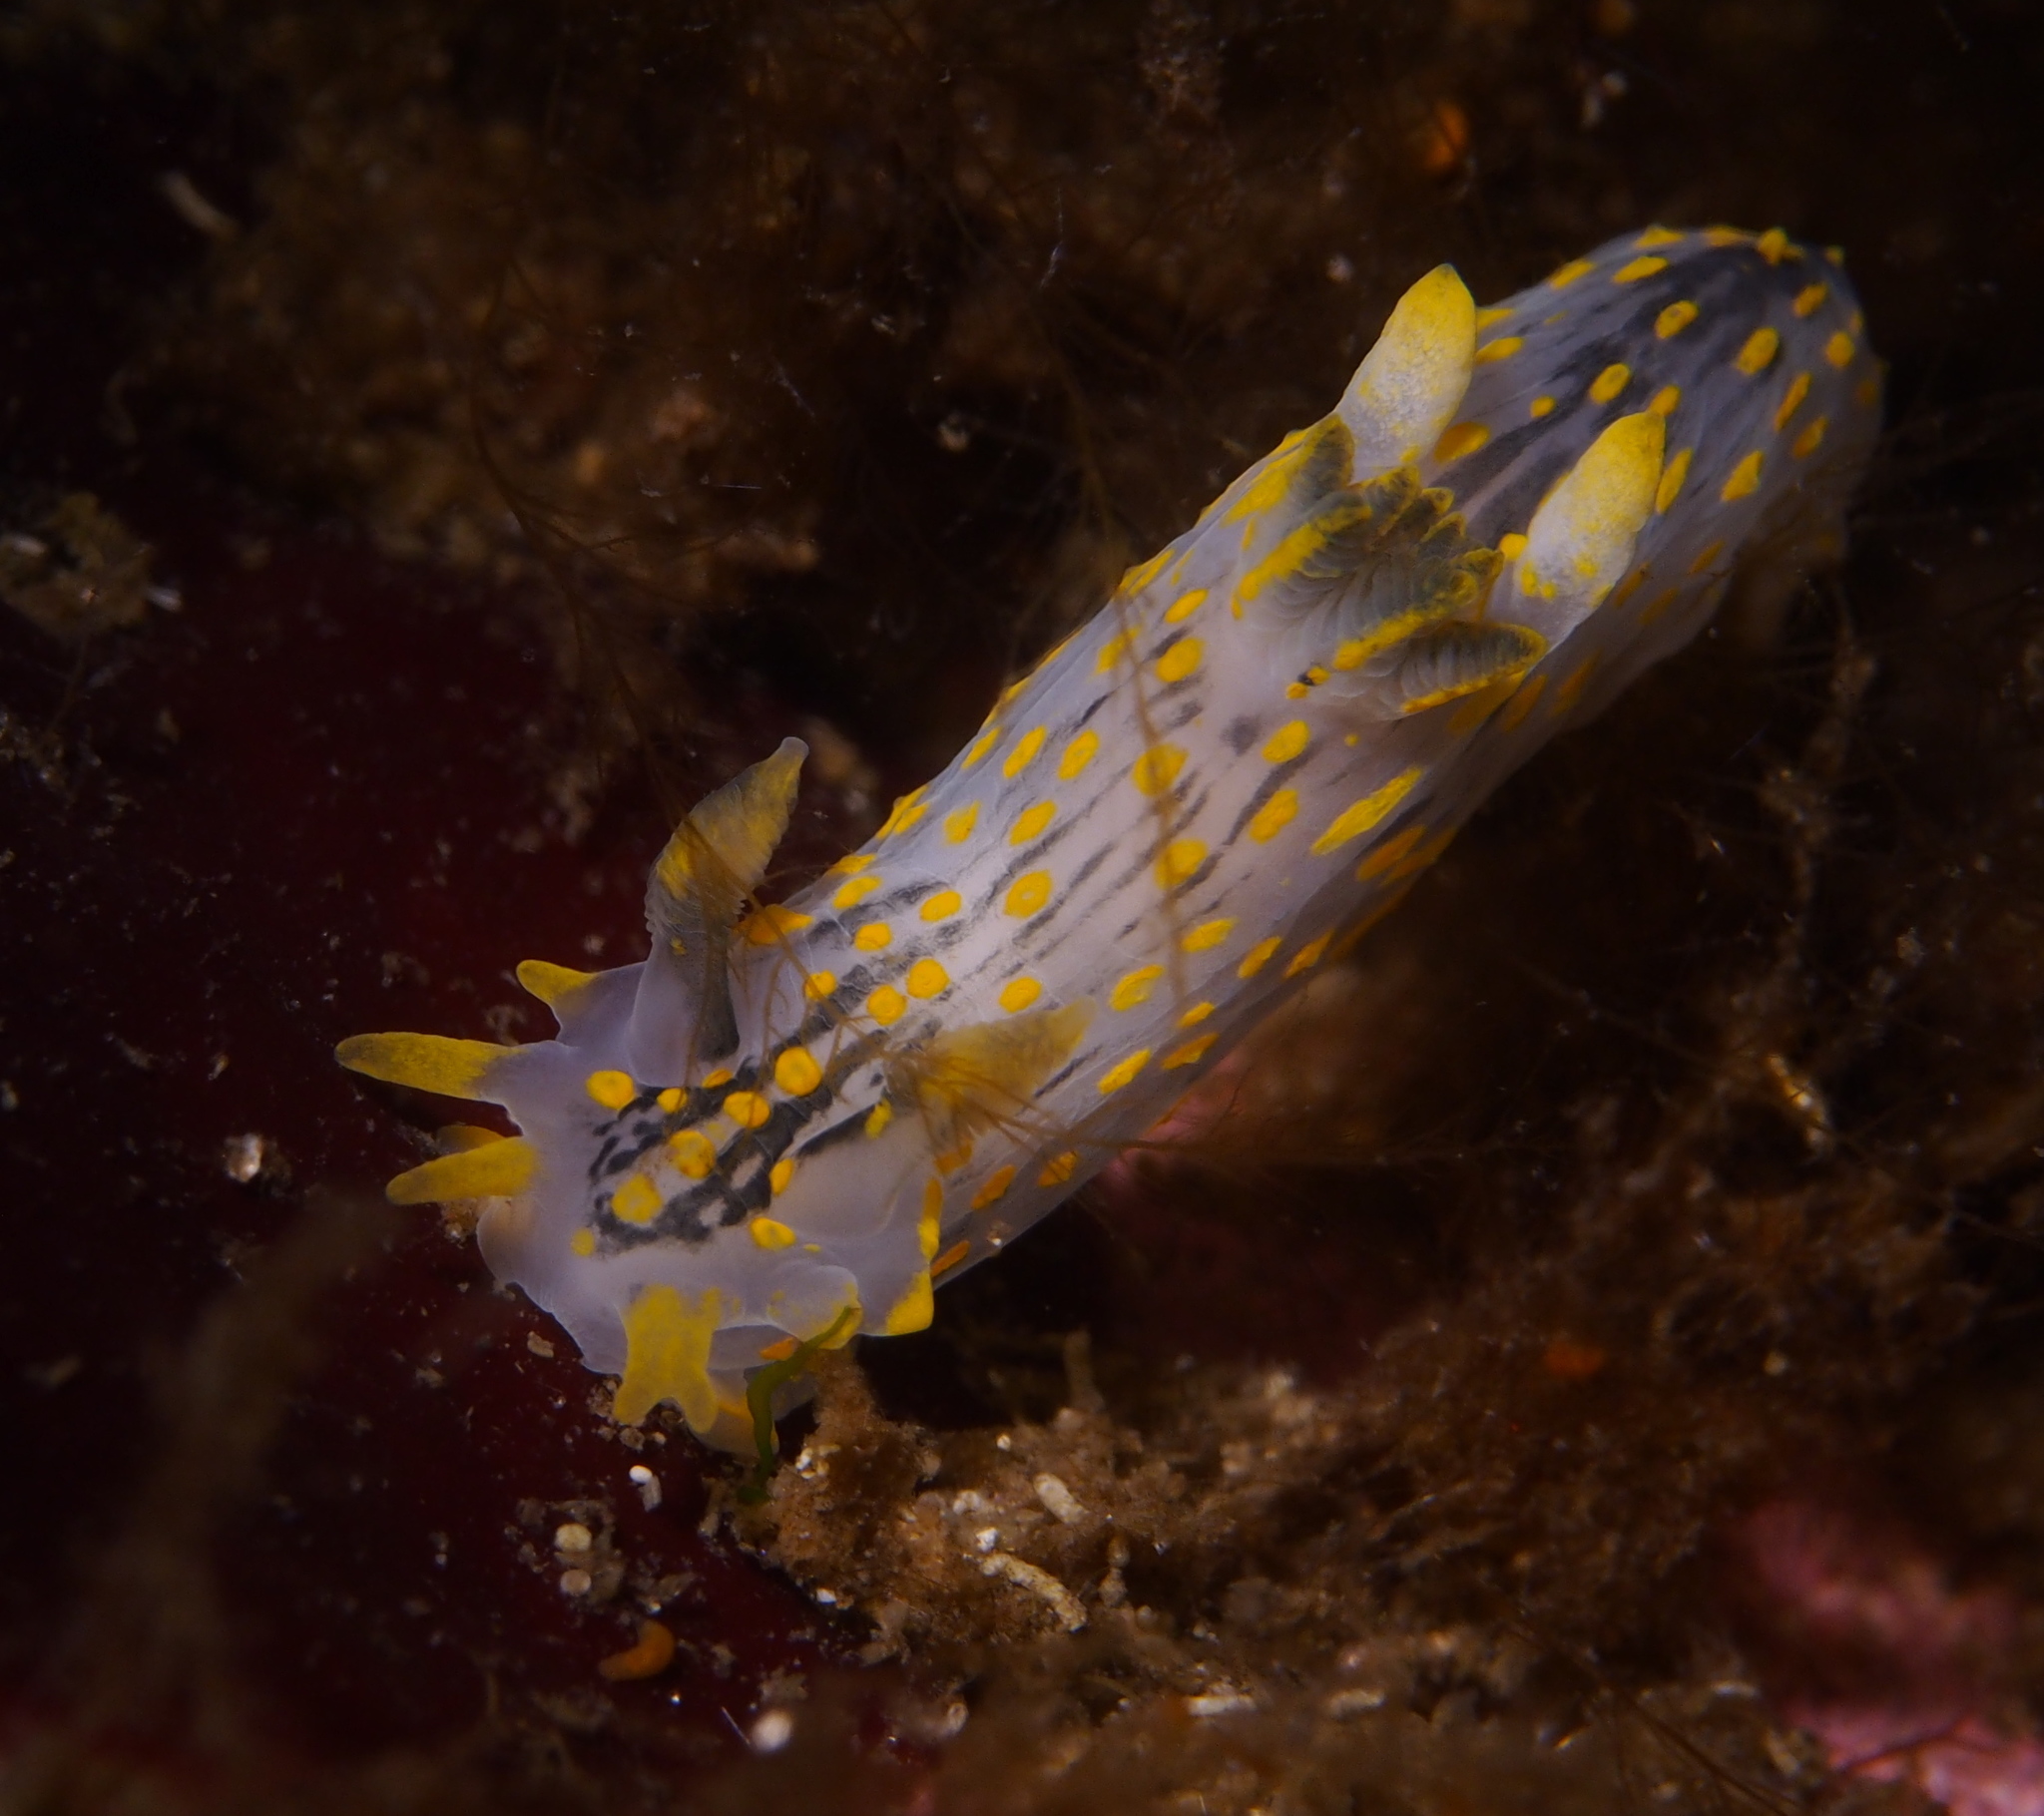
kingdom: Animalia
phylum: Mollusca
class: Gastropoda
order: Nudibranchia
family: Polyceridae
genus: Polycera
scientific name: Polycera quadrilineata
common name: Four-striped polycera
